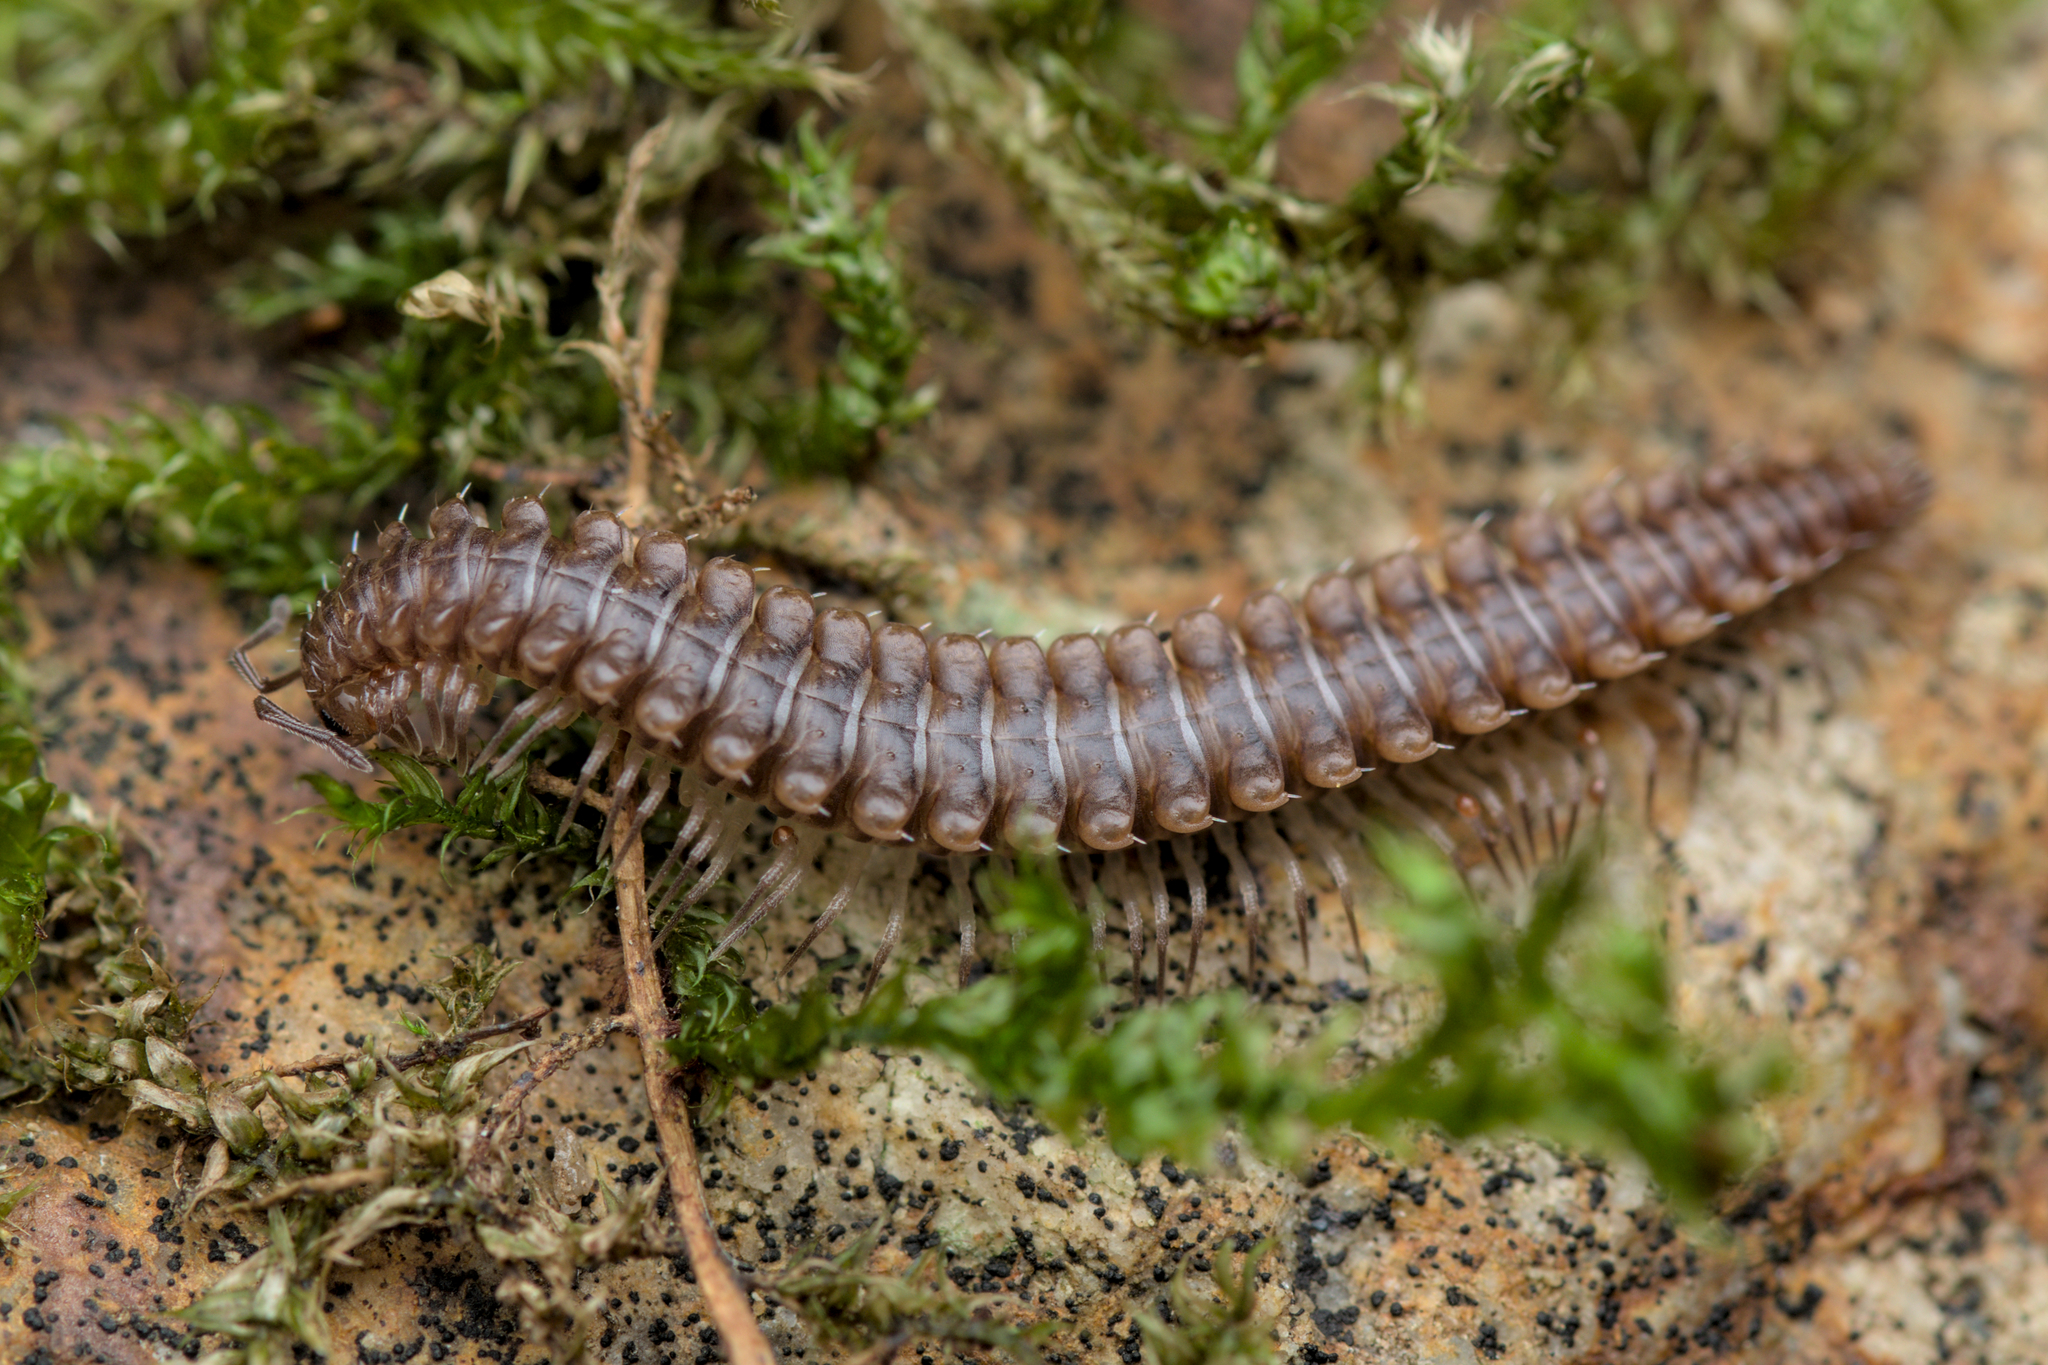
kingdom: Animalia
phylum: Arthropoda
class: Diplopoda
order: Chordeumatida
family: Craspedosomatidae
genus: Nanogona
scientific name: Nanogona polydesmoides
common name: Eyed flat-backed millipede
